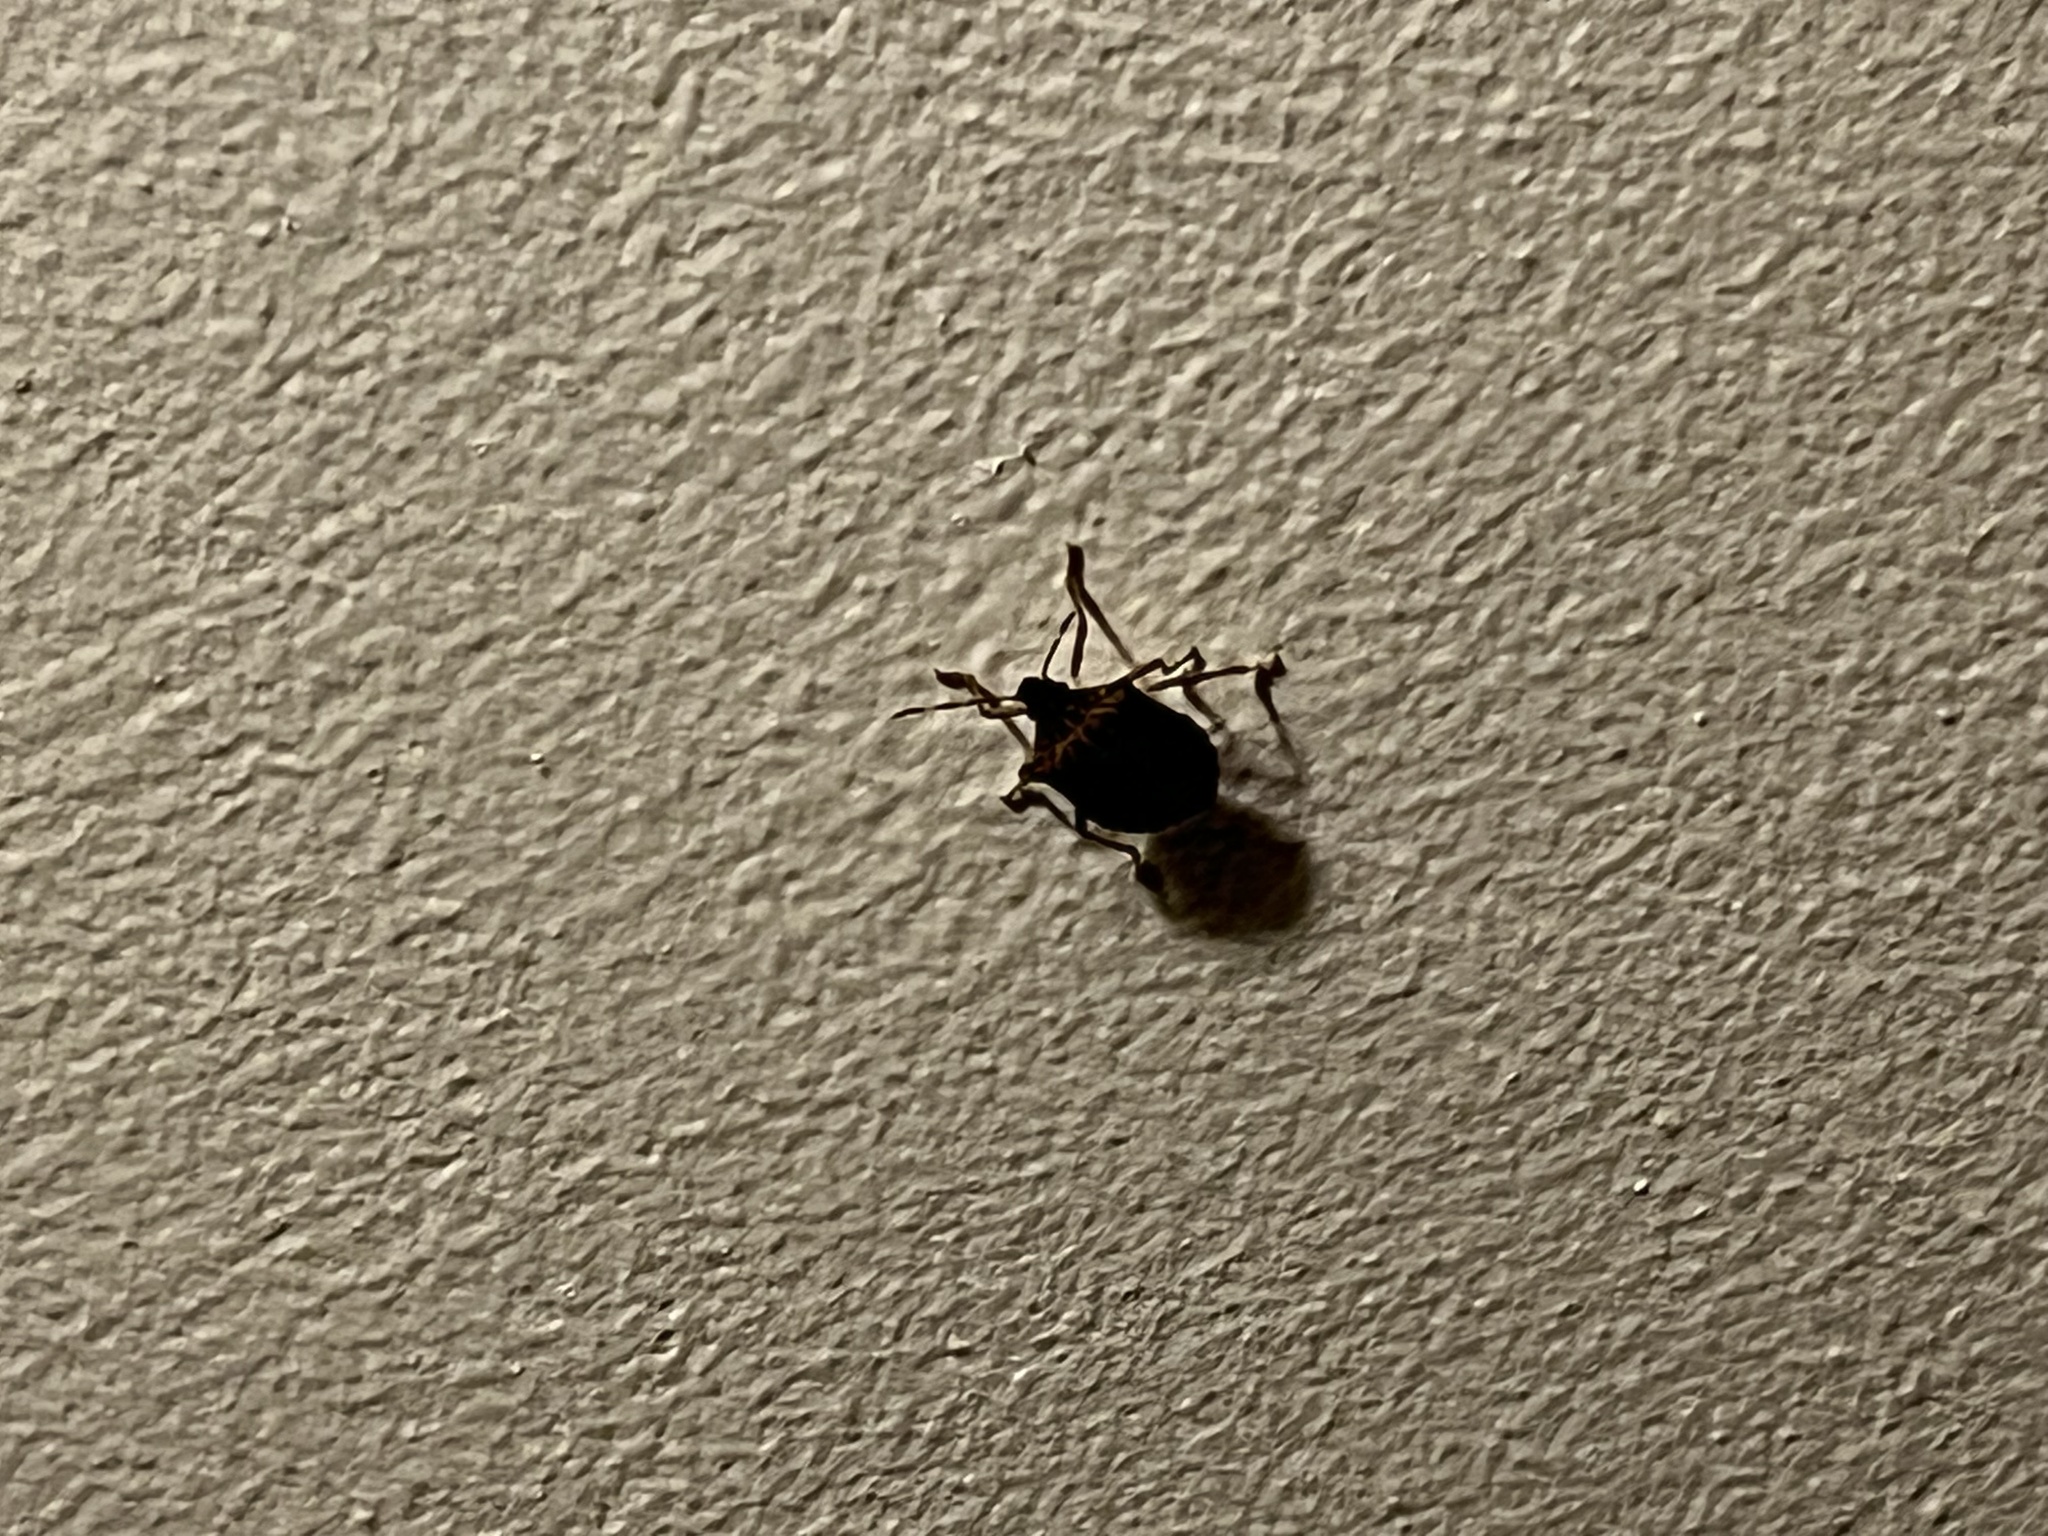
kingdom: Animalia
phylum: Arthropoda
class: Insecta
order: Hemiptera
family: Pentatomidae
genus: Halyomorpha
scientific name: Halyomorpha halys
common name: Brown marmorated stink bug
